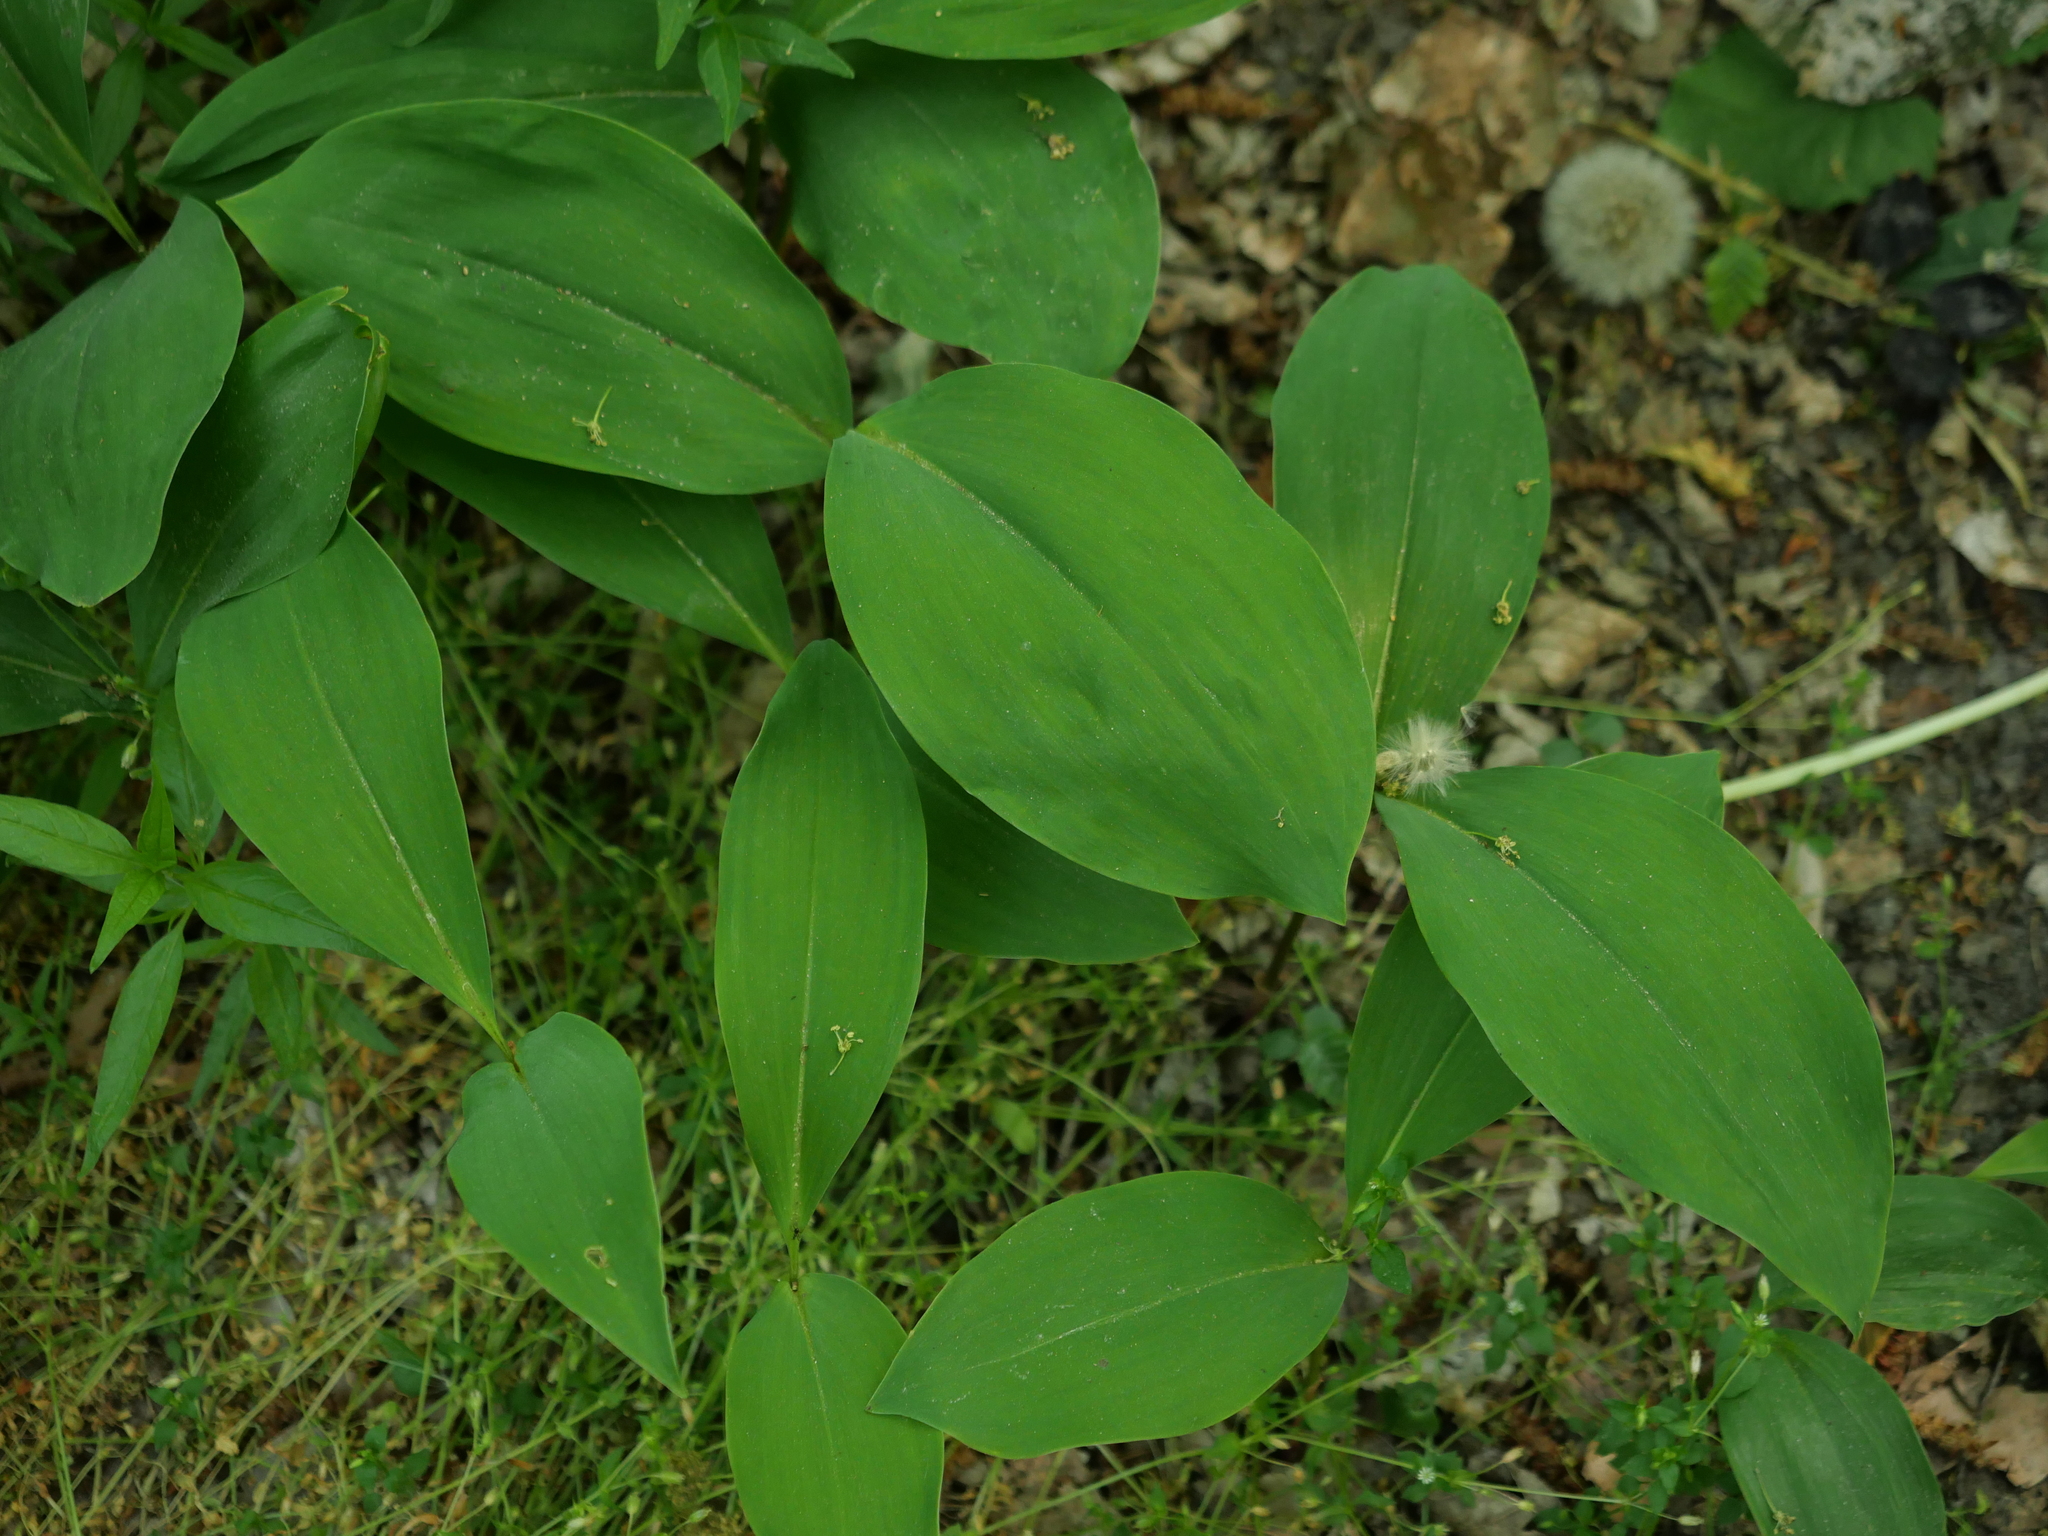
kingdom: Plantae
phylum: Tracheophyta
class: Liliopsida
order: Asparagales
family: Asparagaceae
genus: Convallaria
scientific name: Convallaria majalis
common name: Lily-of-the-valley
